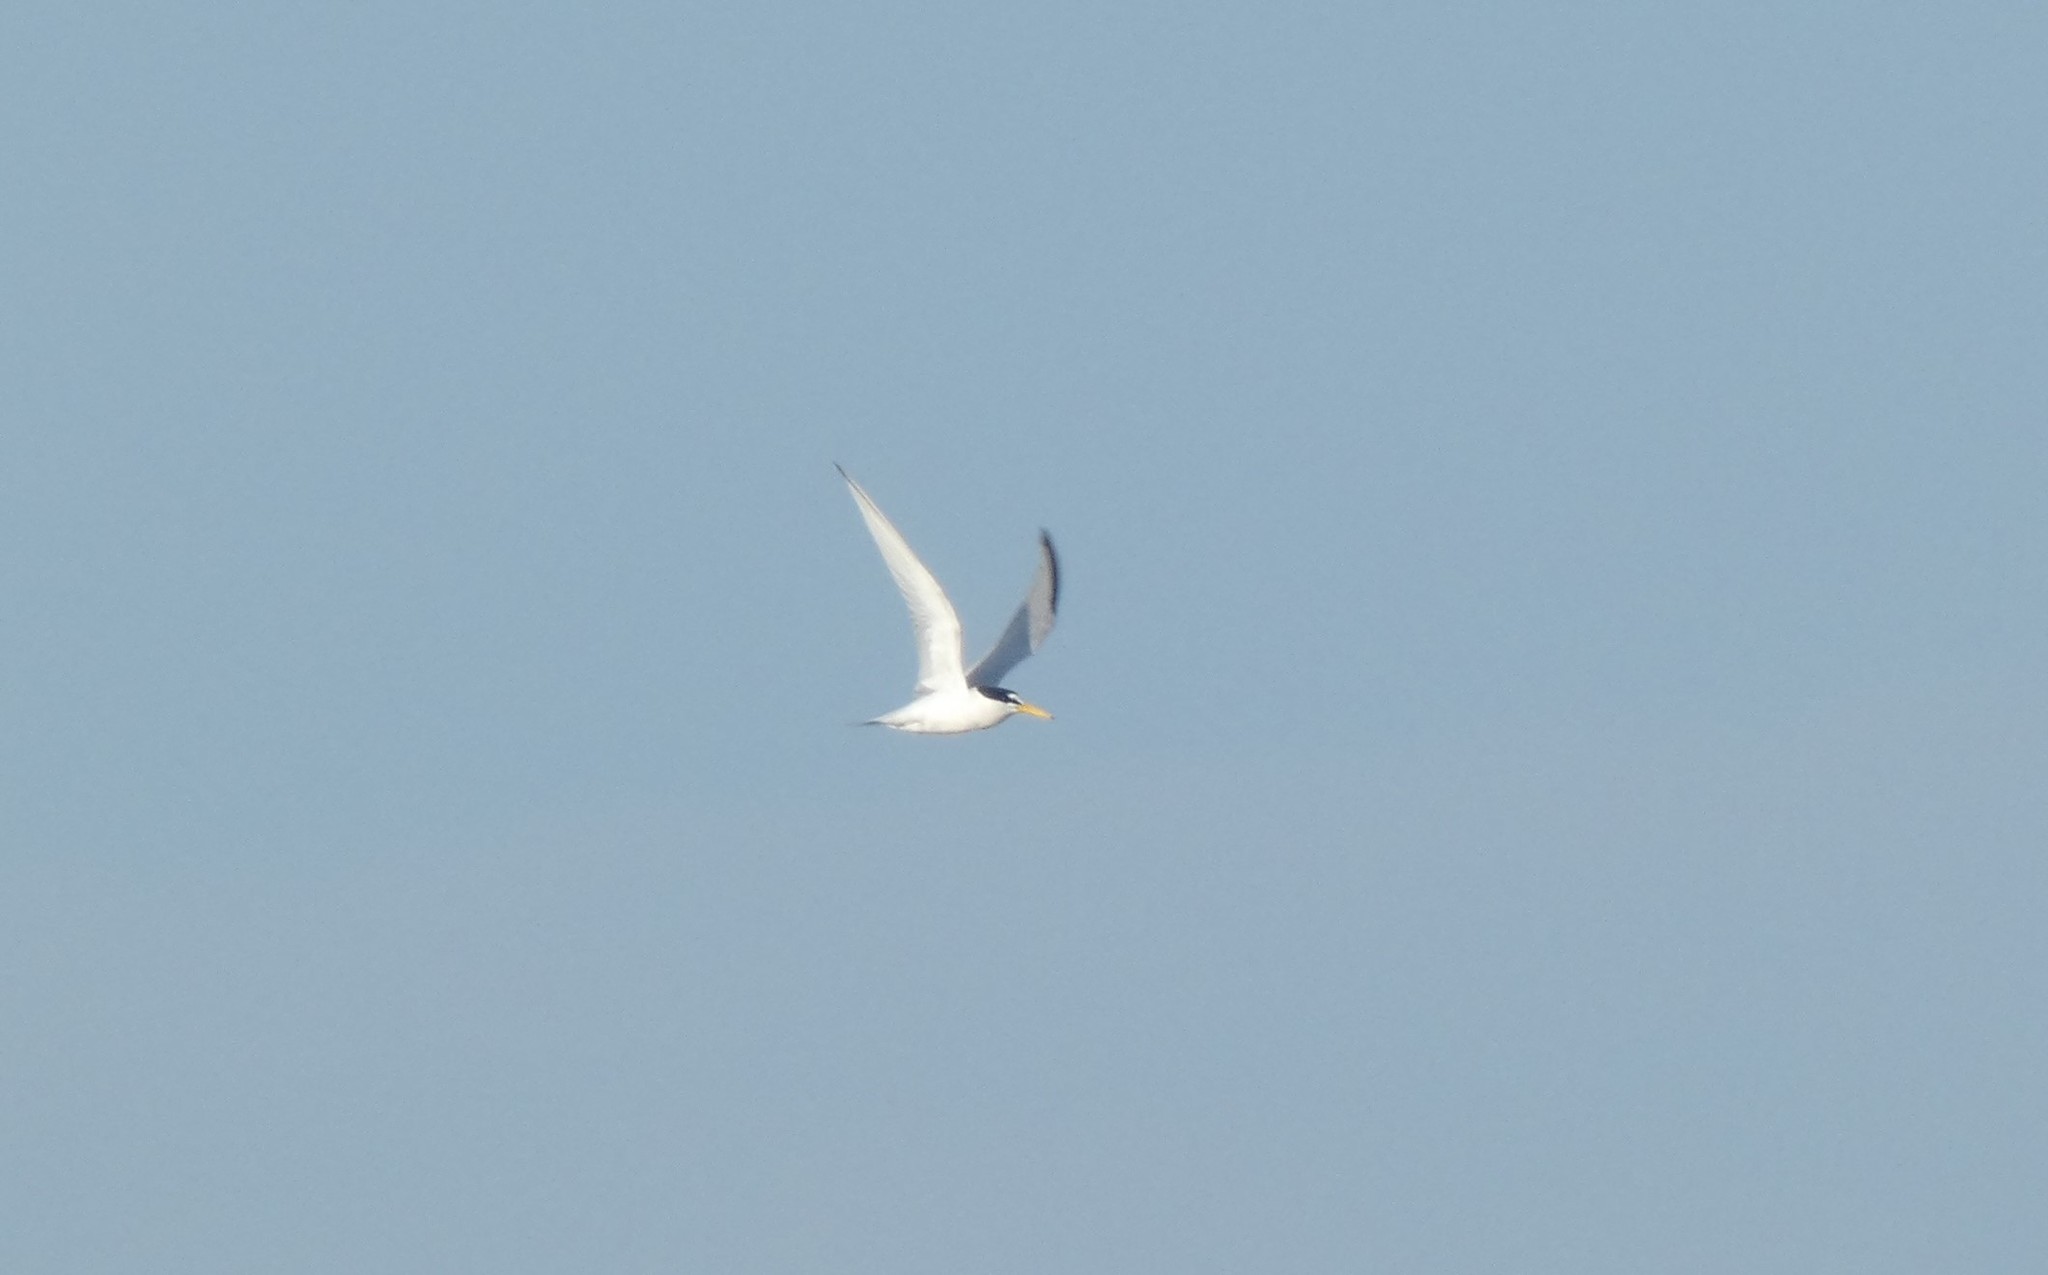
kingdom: Animalia
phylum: Chordata
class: Aves
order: Charadriiformes
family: Laridae
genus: Sternula
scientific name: Sternula antillarum
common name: Least tern
